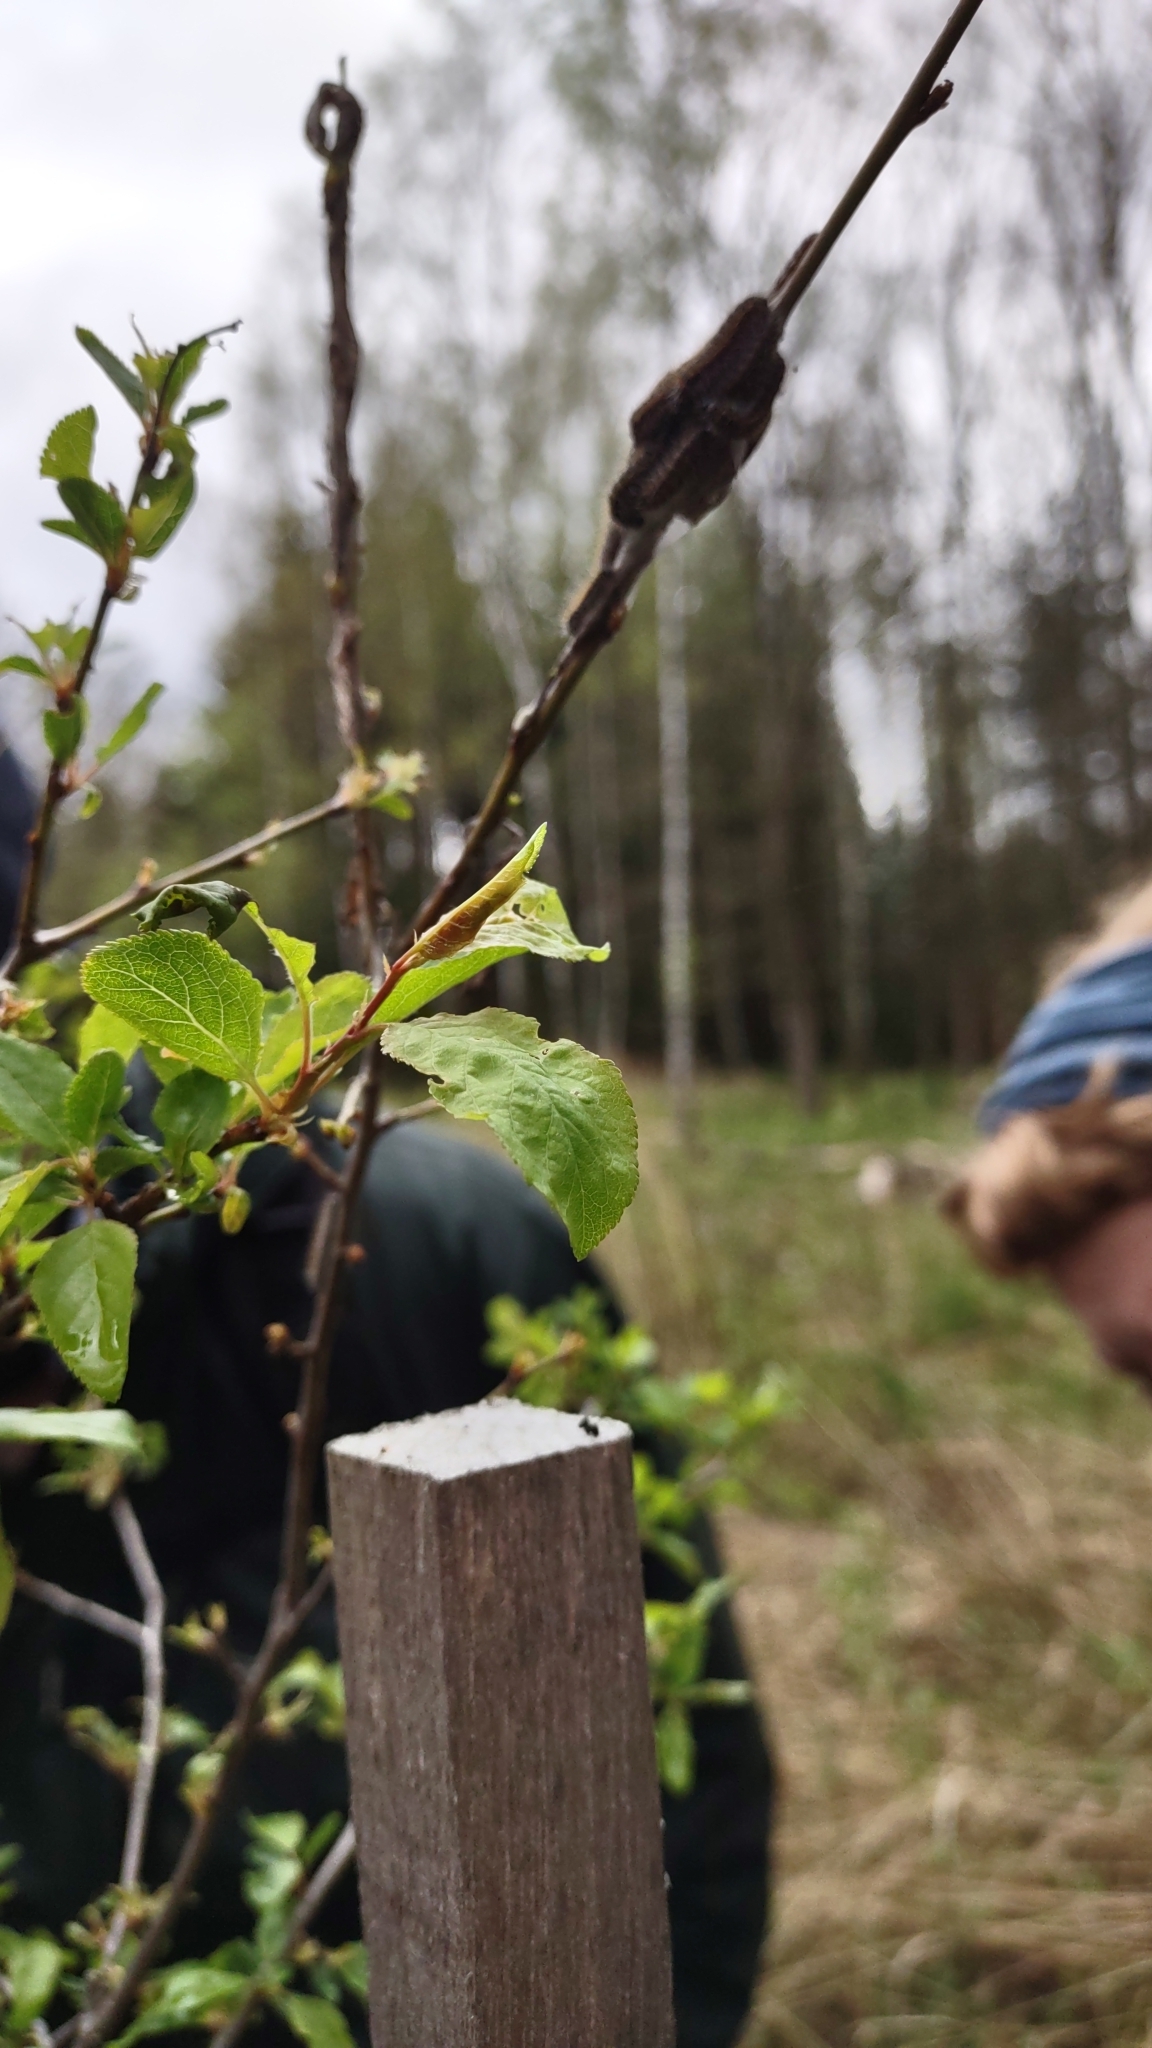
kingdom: Animalia
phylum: Arthropoda
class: Insecta
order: Lepidoptera
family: Pieridae
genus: Aporia
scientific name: Aporia crataegi
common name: Black-veined white
